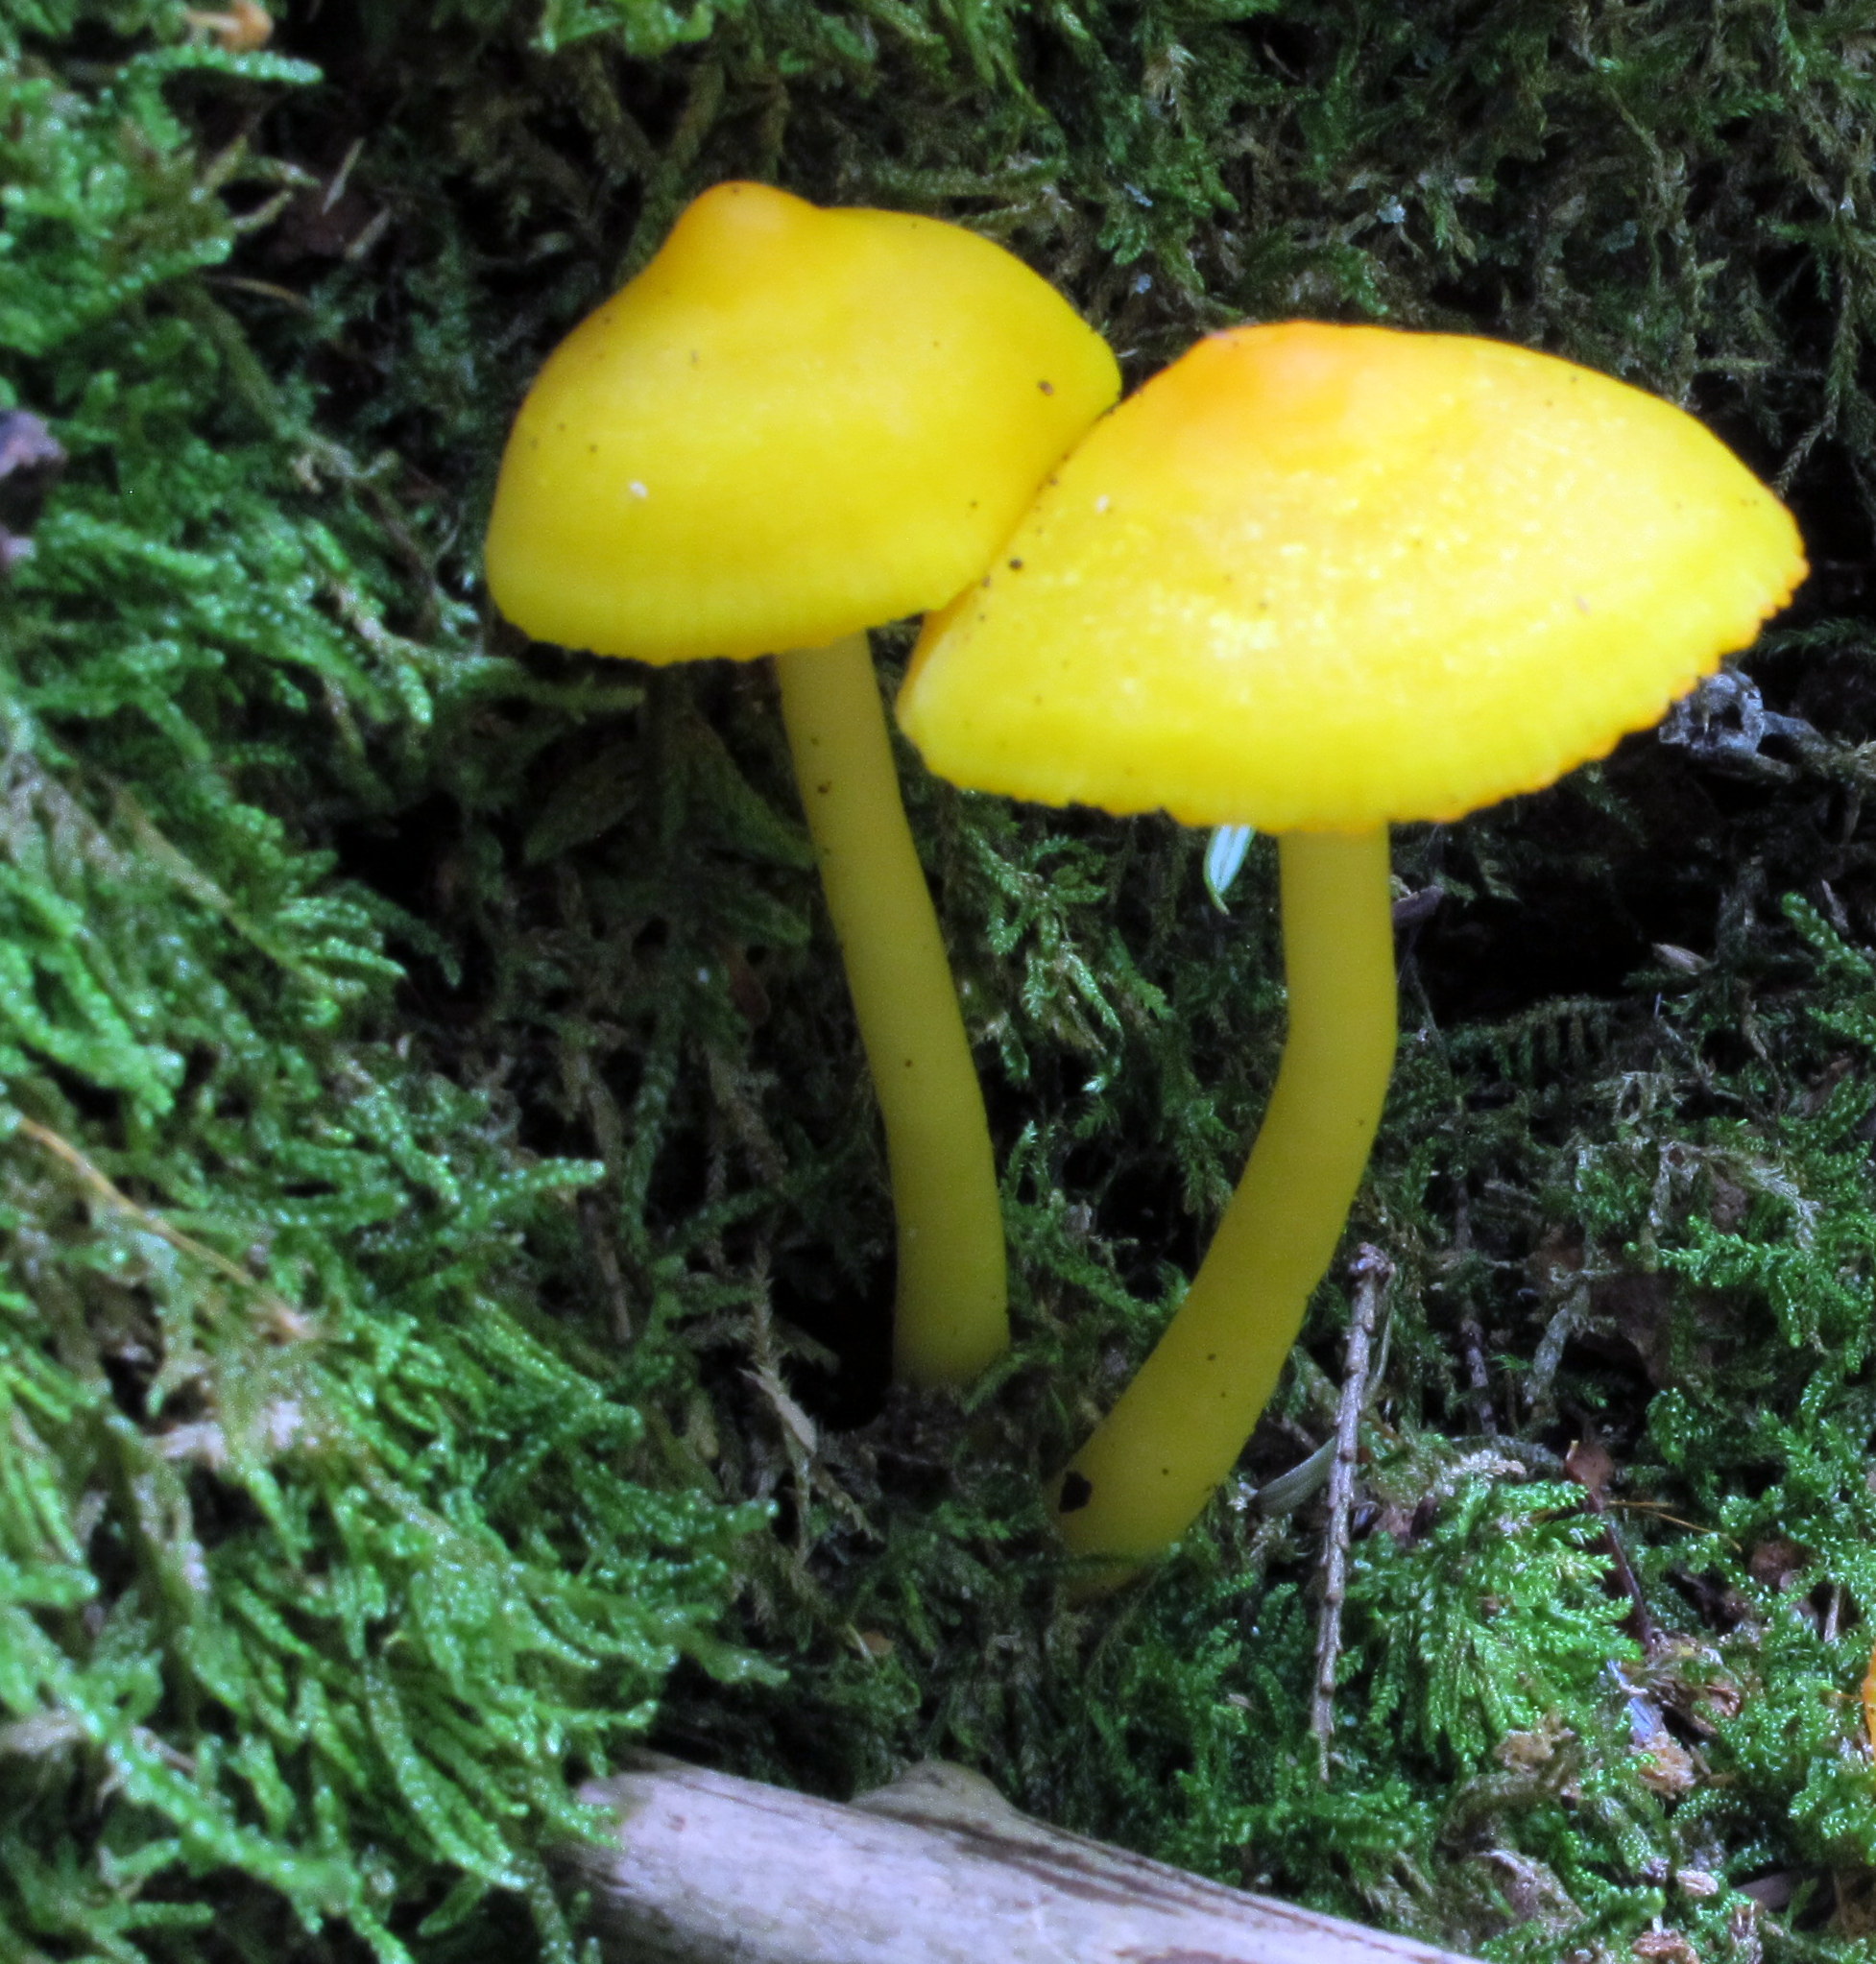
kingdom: Fungi
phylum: Basidiomycota
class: Agaricomycetes
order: Agaricales
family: Hygrophoraceae
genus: Humidicutis
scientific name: Humidicutis marginata
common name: Orange gilled waxcap
